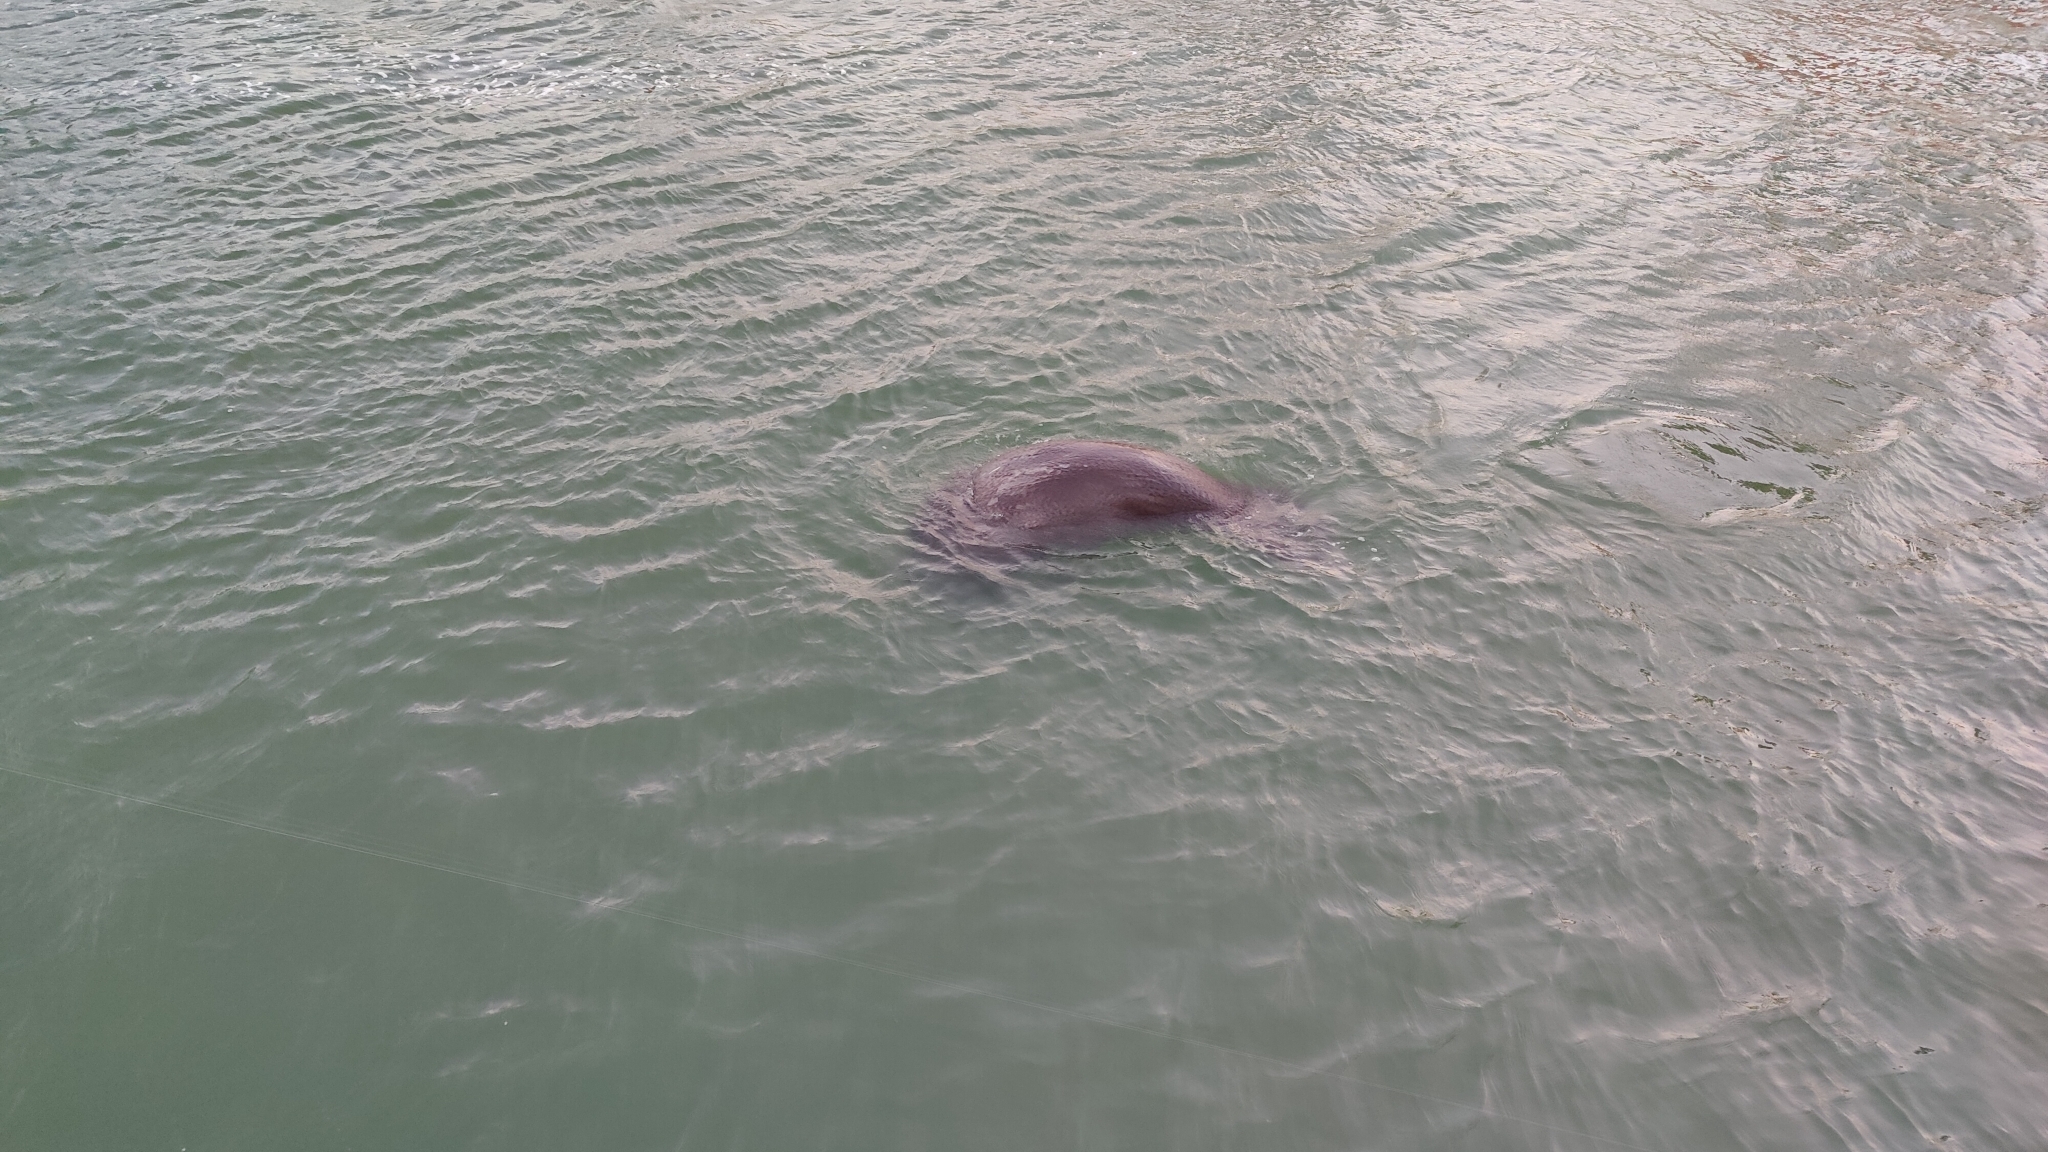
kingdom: Animalia
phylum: Chordata
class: Mammalia
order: Sirenia
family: Trichechidae
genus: Trichechus
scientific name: Trichechus manatus
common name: West indian manatee
